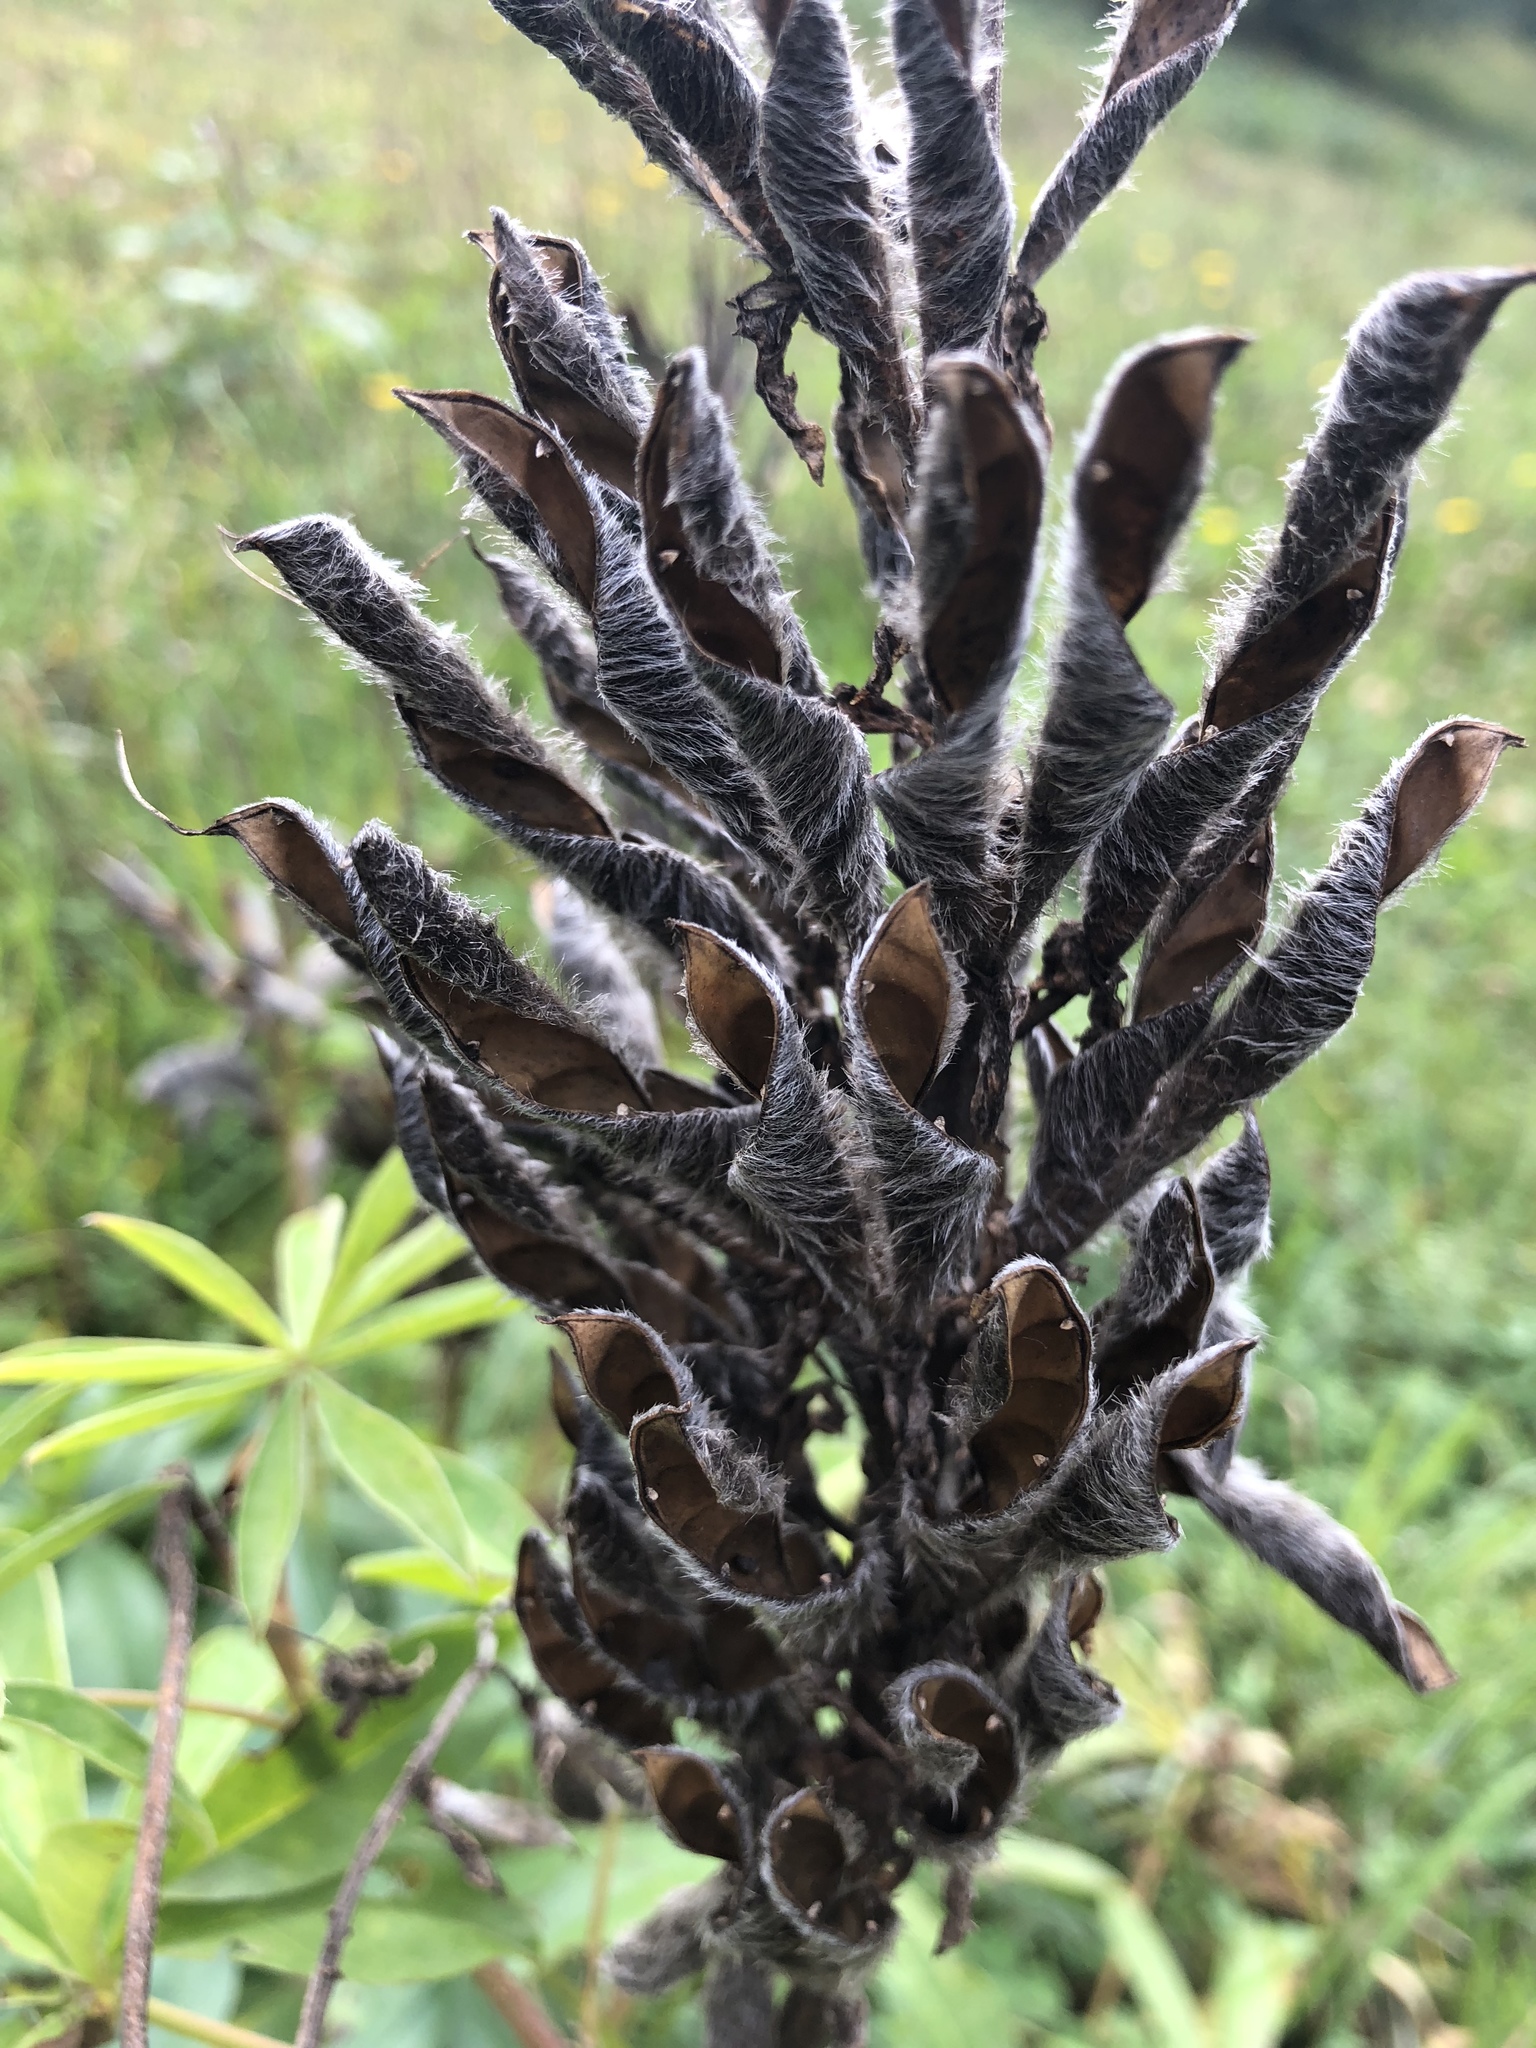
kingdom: Plantae
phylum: Tracheophyta
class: Magnoliopsida
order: Fabales
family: Fabaceae
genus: Lupinus
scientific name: Lupinus polyphyllus
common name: Garden lupin
